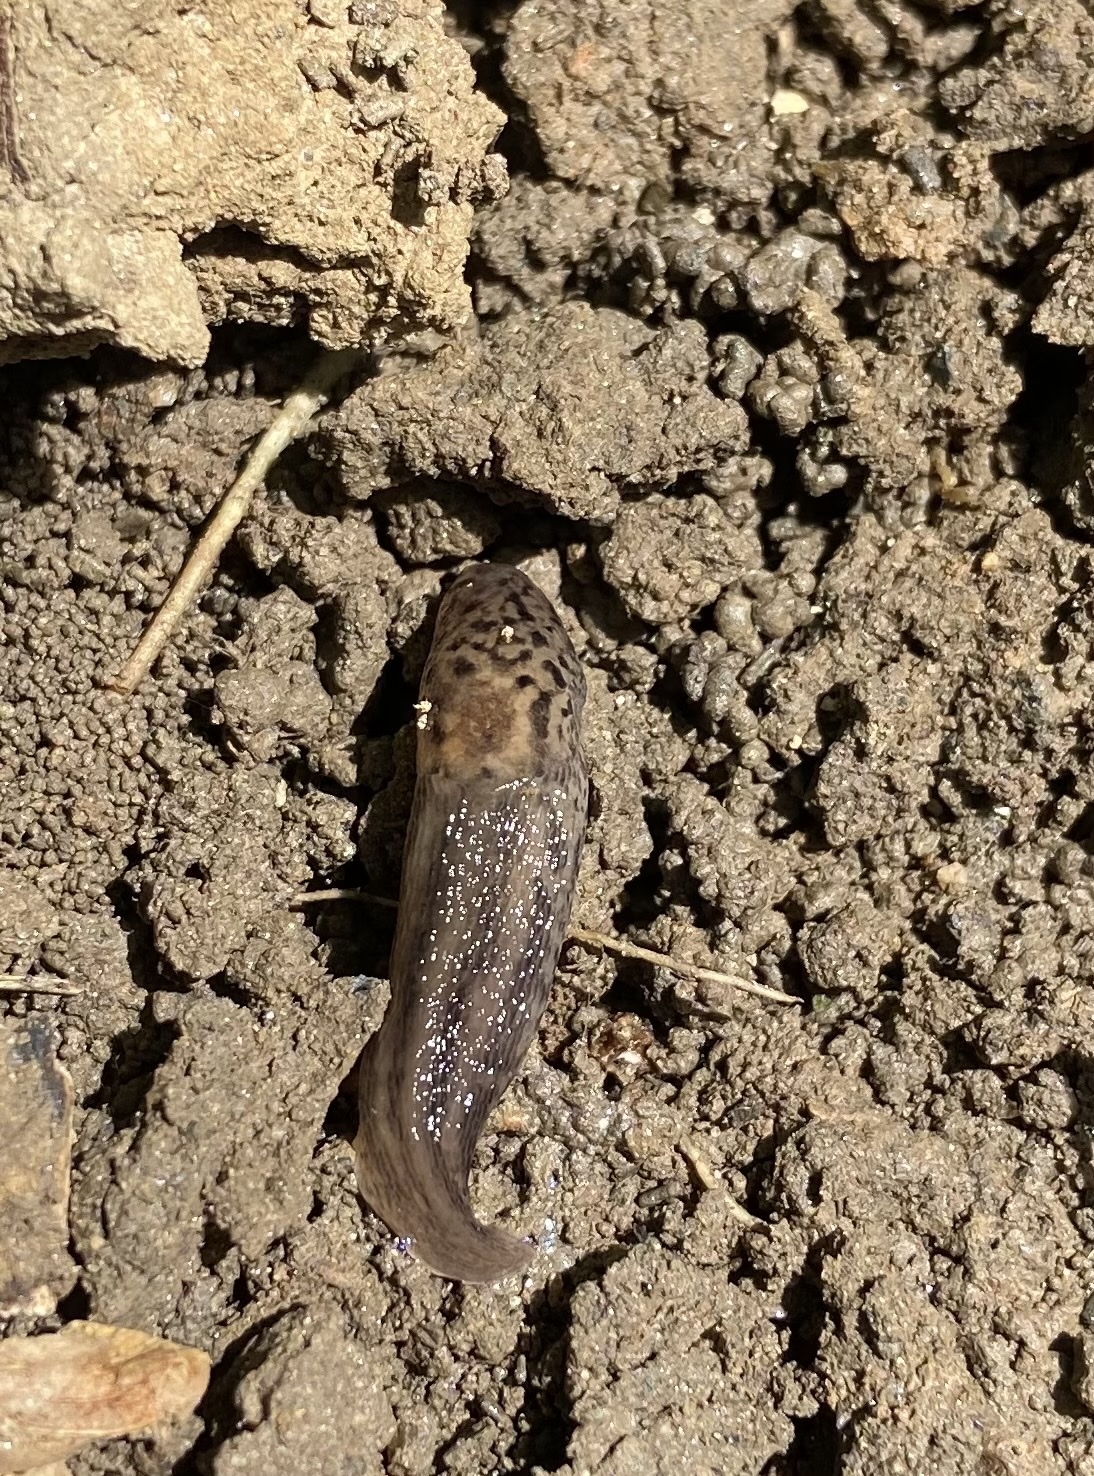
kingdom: Animalia
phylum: Mollusca
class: Gastropoda
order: Stylommatophora
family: Limacidae
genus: Limax
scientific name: Limax maximus
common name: Great grey slug
